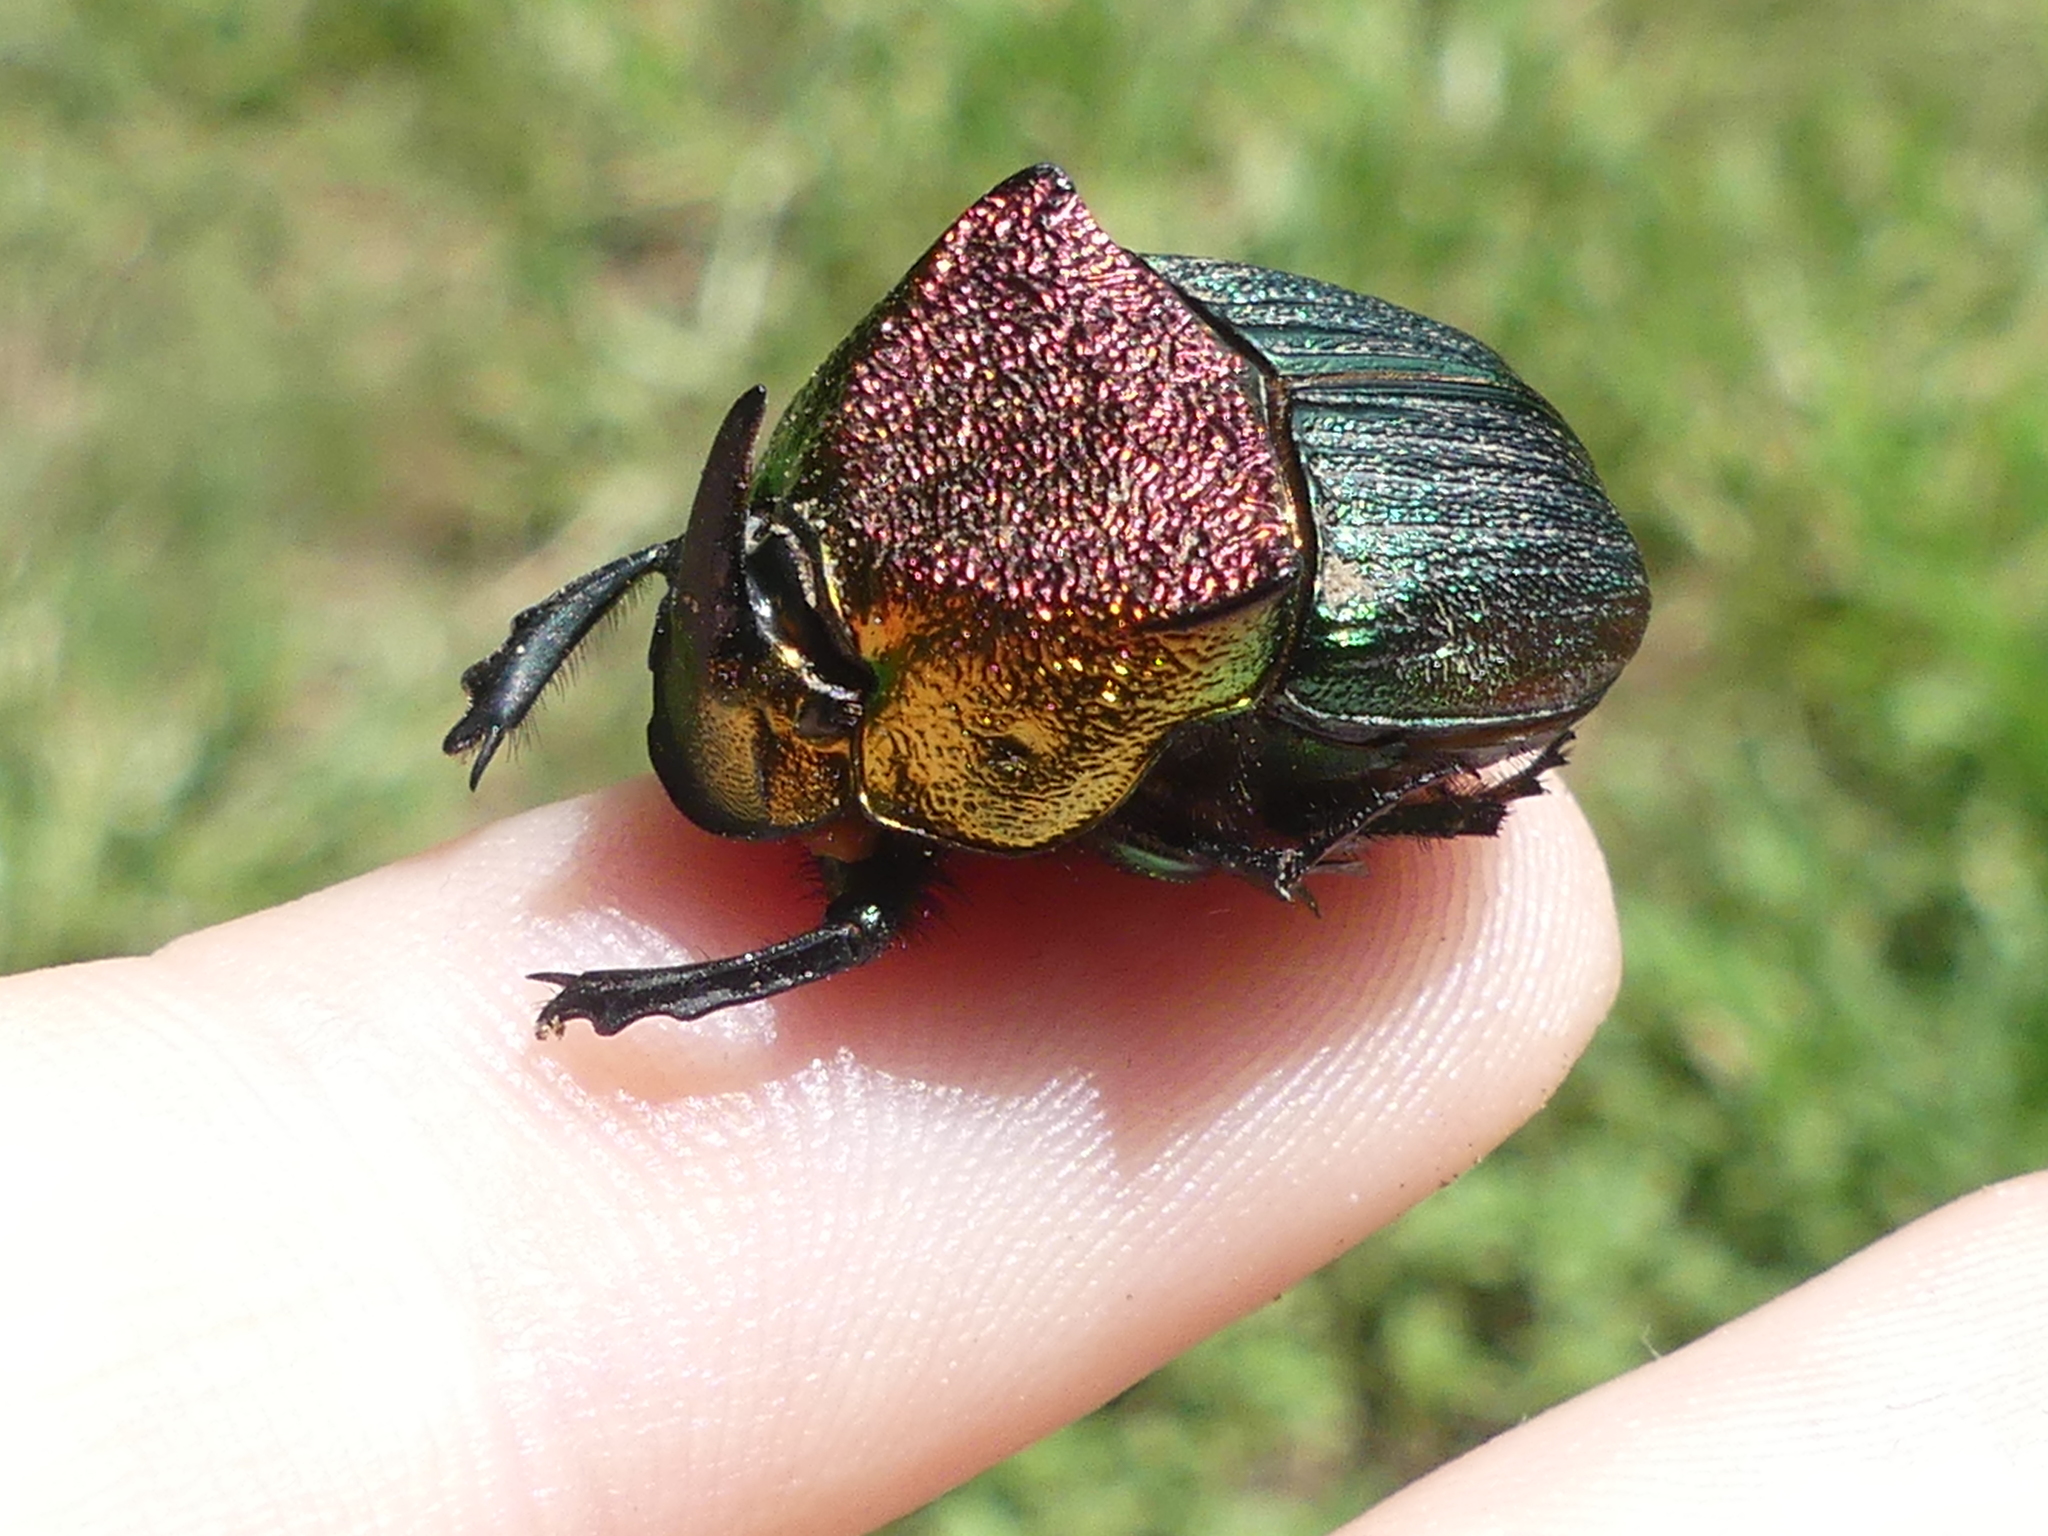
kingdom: Animalia
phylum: Arthropoda
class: Insecta
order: Coleoptera
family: Scarabaeidae
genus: Phanaeus
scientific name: Phanaeus vindex
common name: Rainbow scarab
